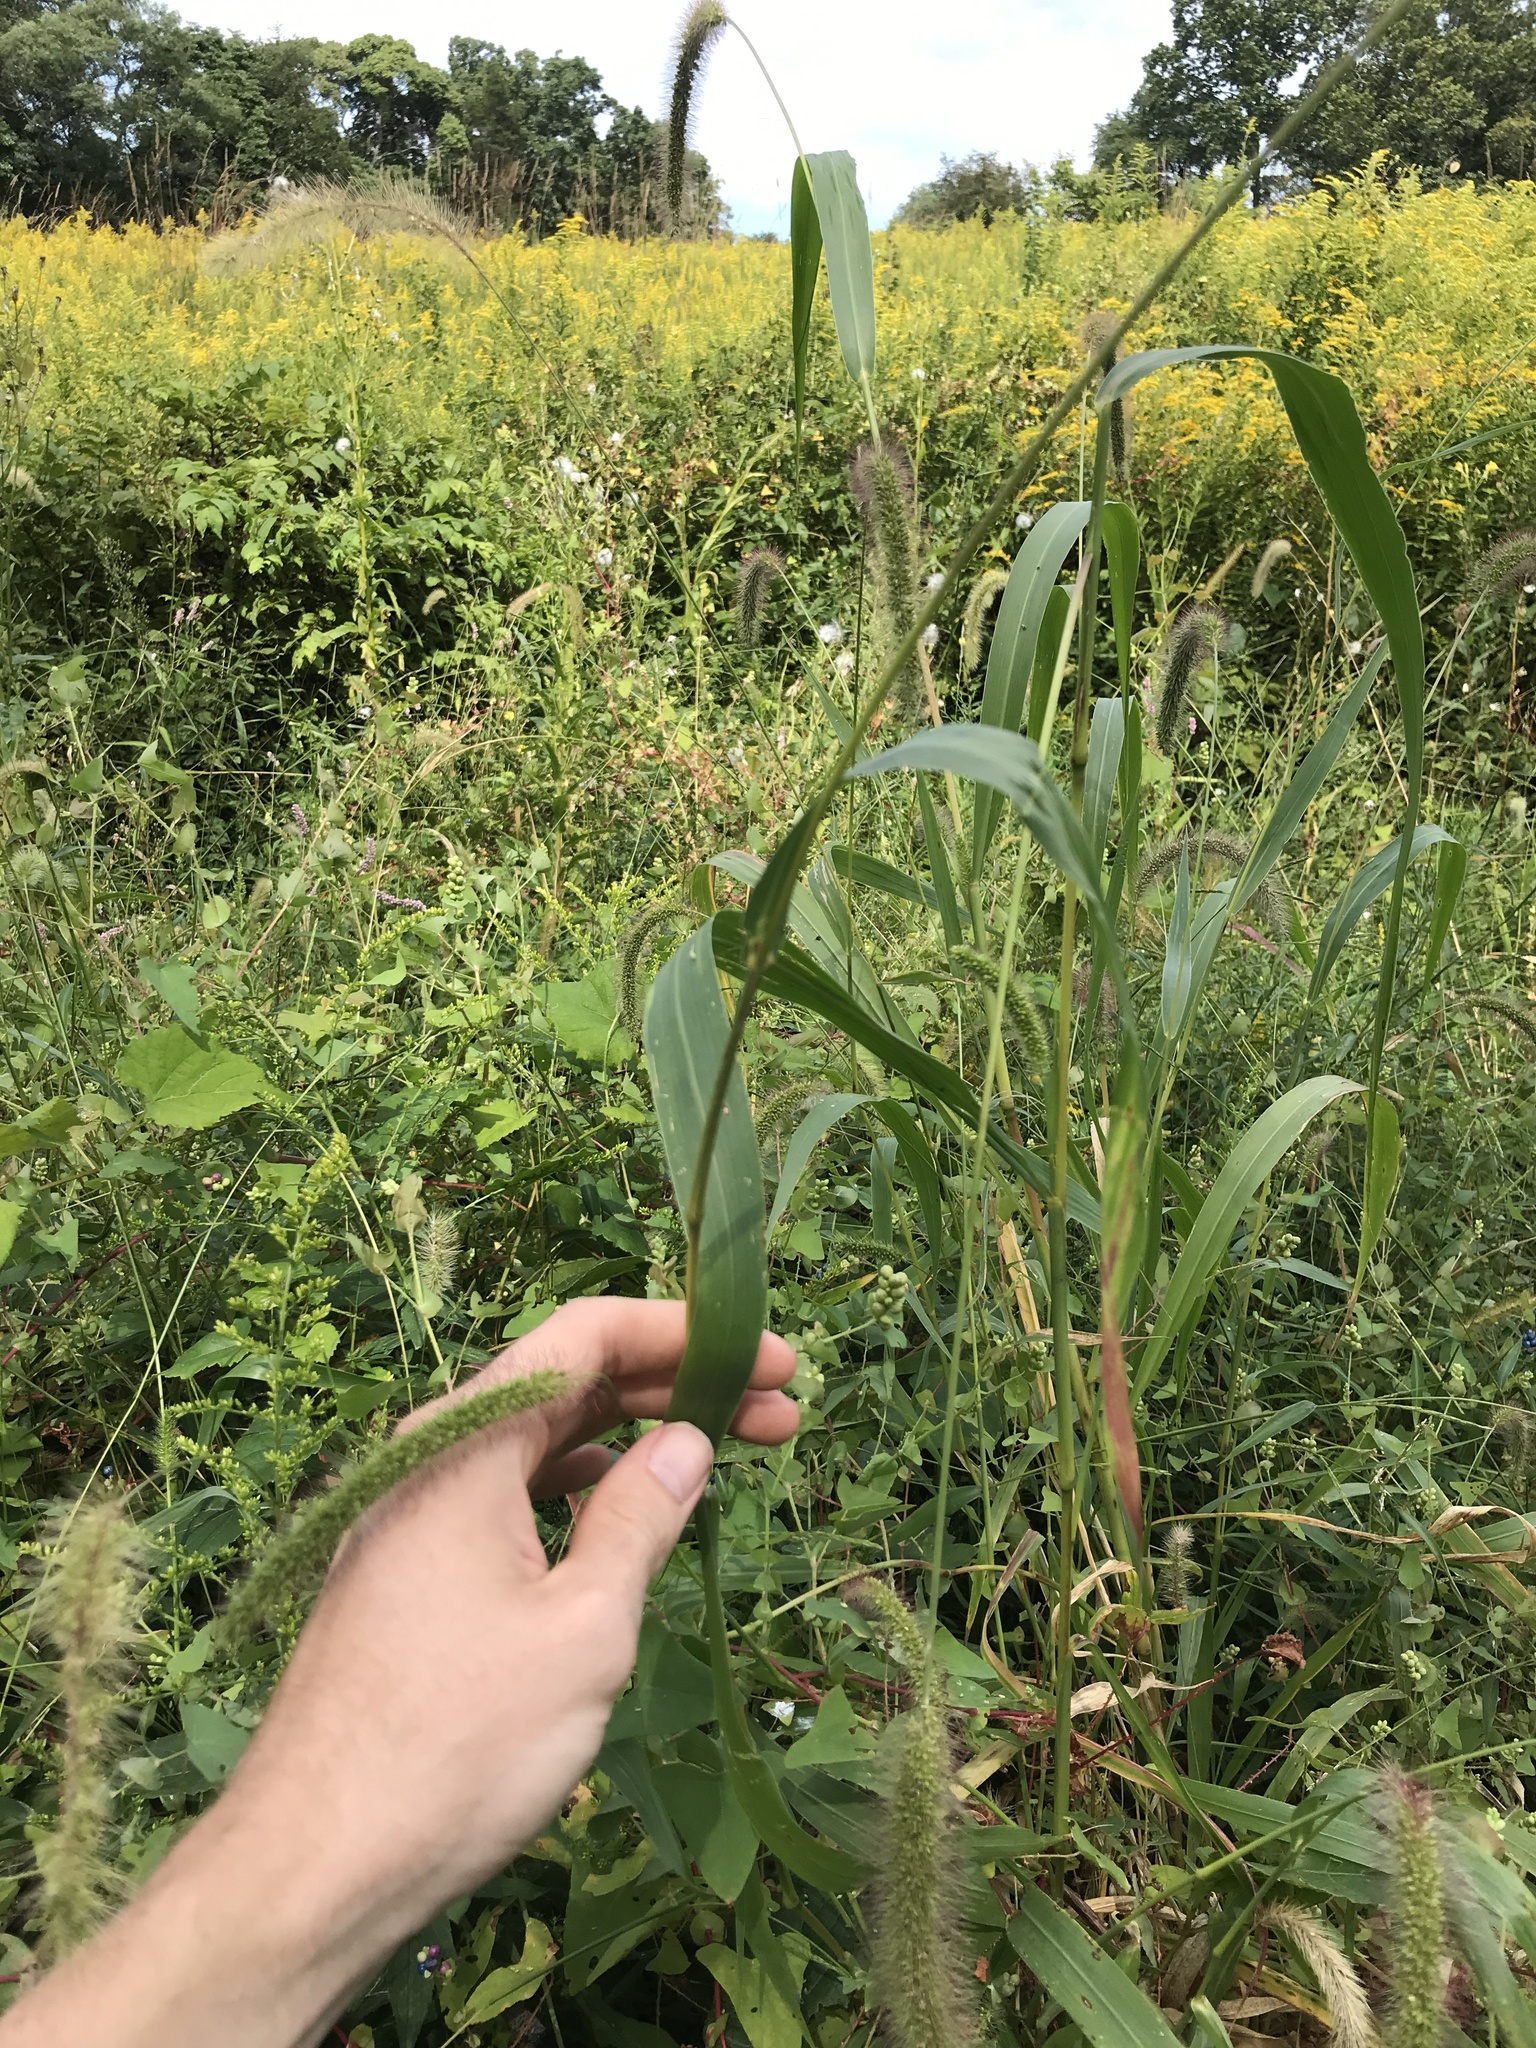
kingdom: Plantae
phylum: Tracheophyta
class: Liliopsida
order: Poales
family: Poaceae
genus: Setaria
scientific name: Setaria faberi
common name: Nodding bristle-grass
